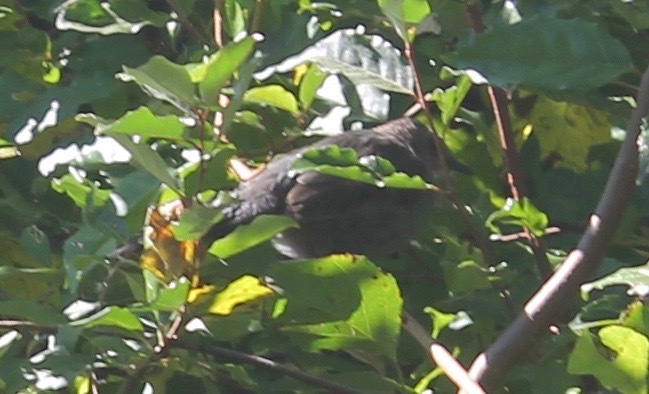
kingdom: Animalia
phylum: Chordata
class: Aves
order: Passeriformes
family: Mimidae
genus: Dumetella
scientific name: Dumetella carolinensis
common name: Gray catbird
